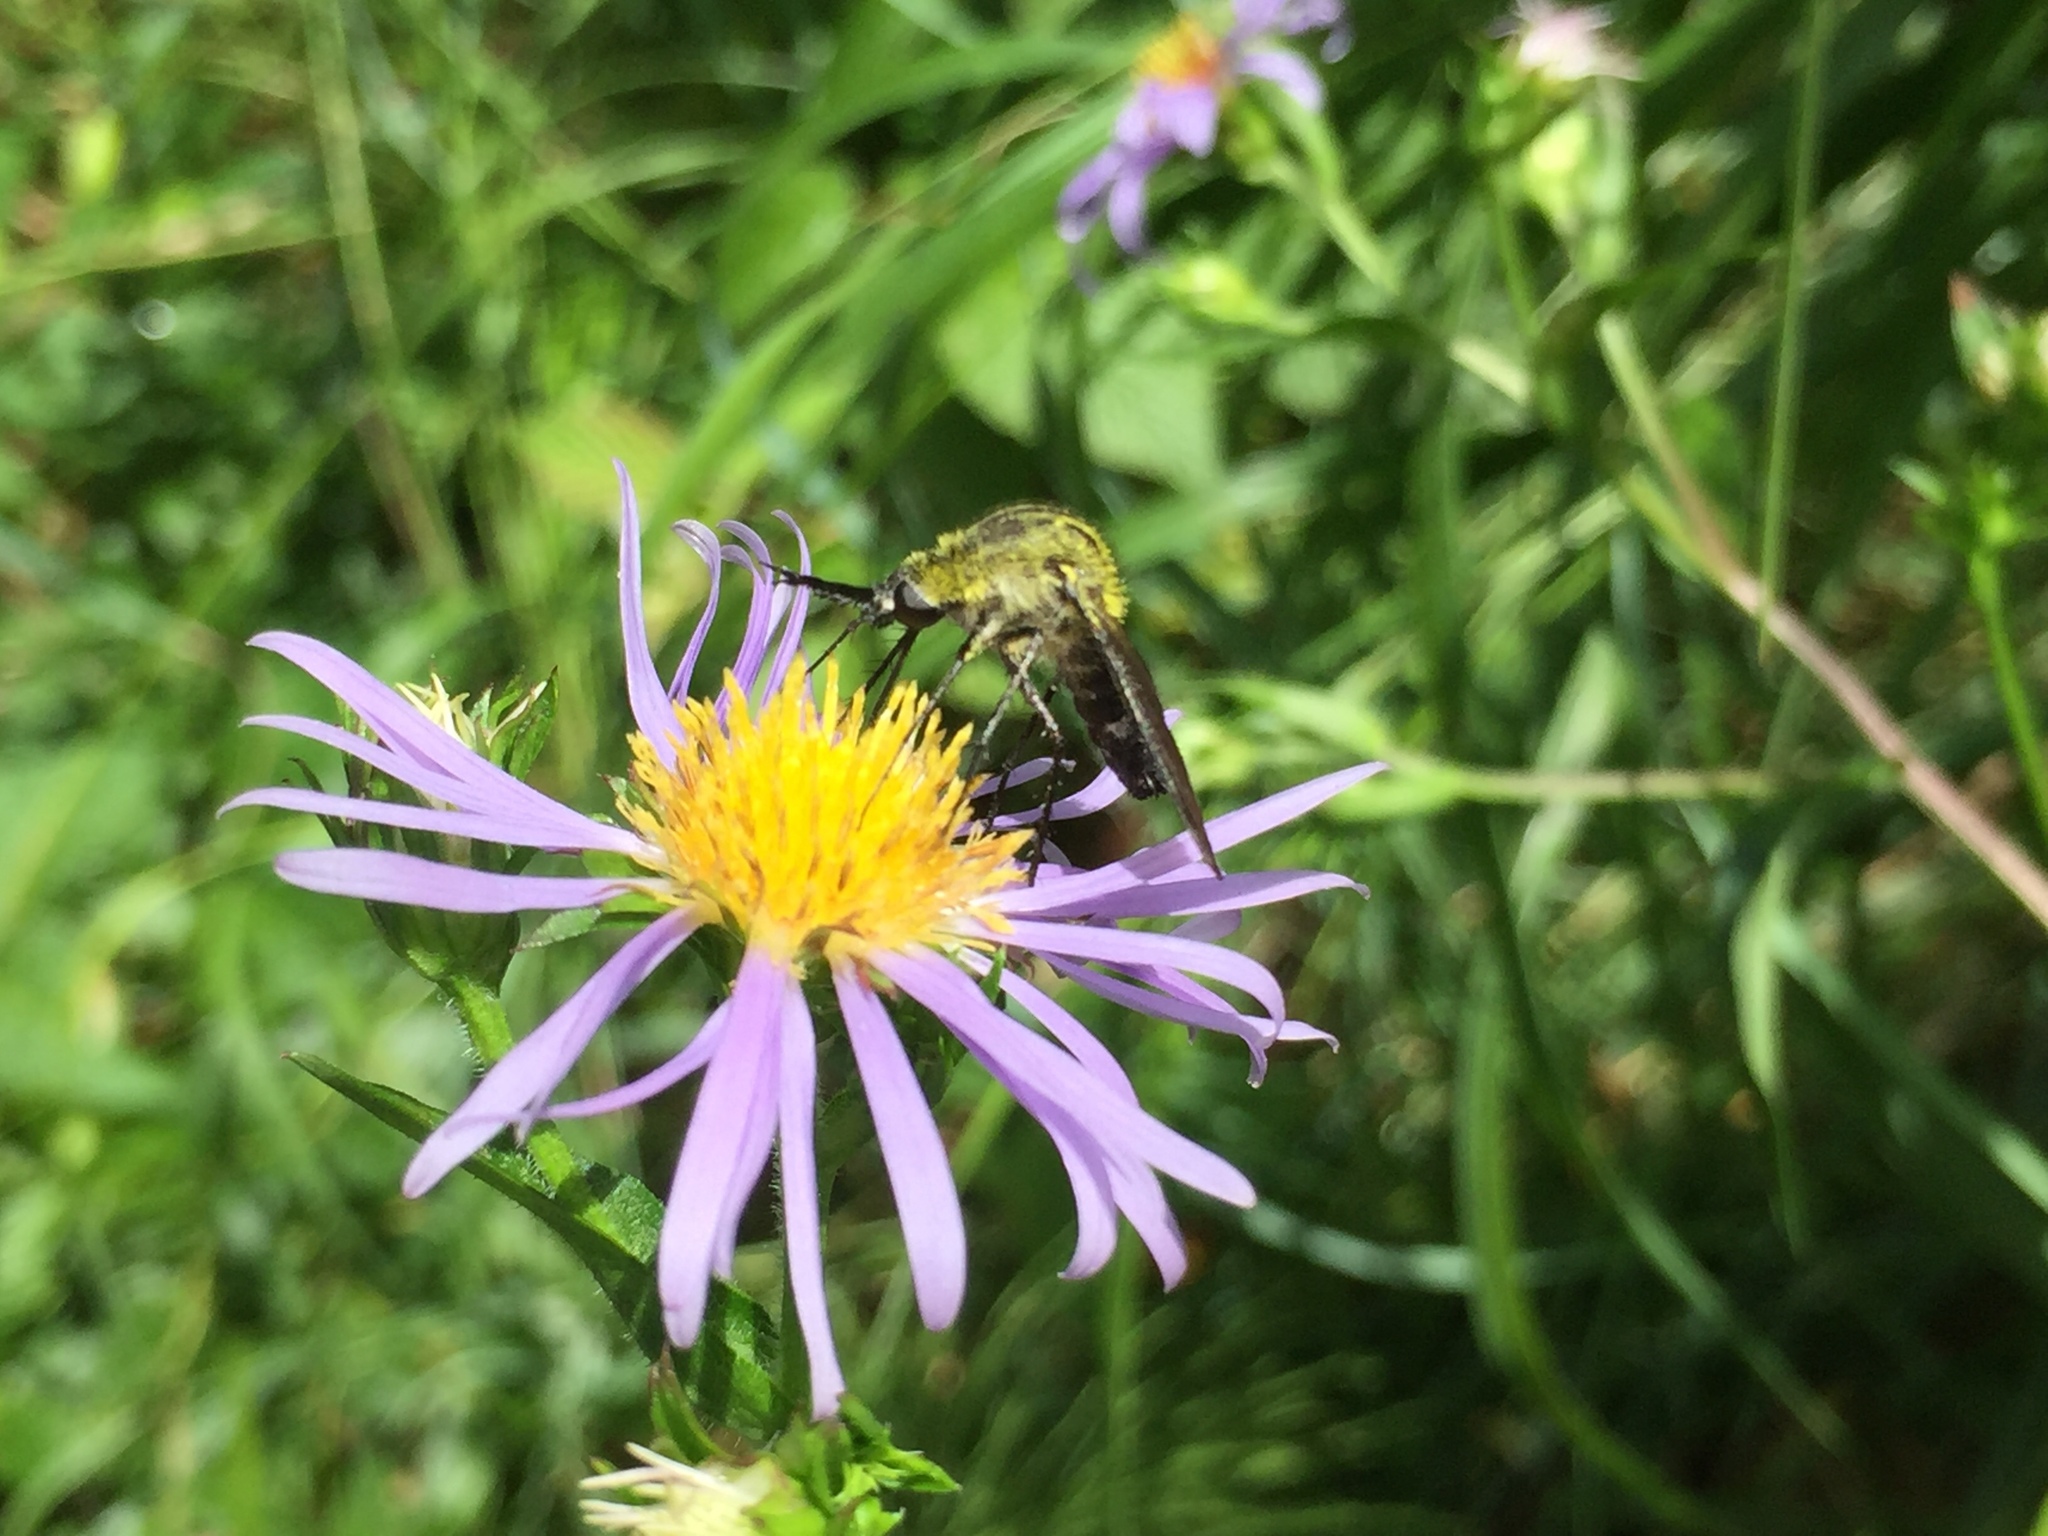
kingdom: Plantae
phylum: Tracheophyta
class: Magnoliopsida
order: Asterales
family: Asteraceae
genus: Symphyotrichum
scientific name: Symphyotrichum puniceum
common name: Bog aster
